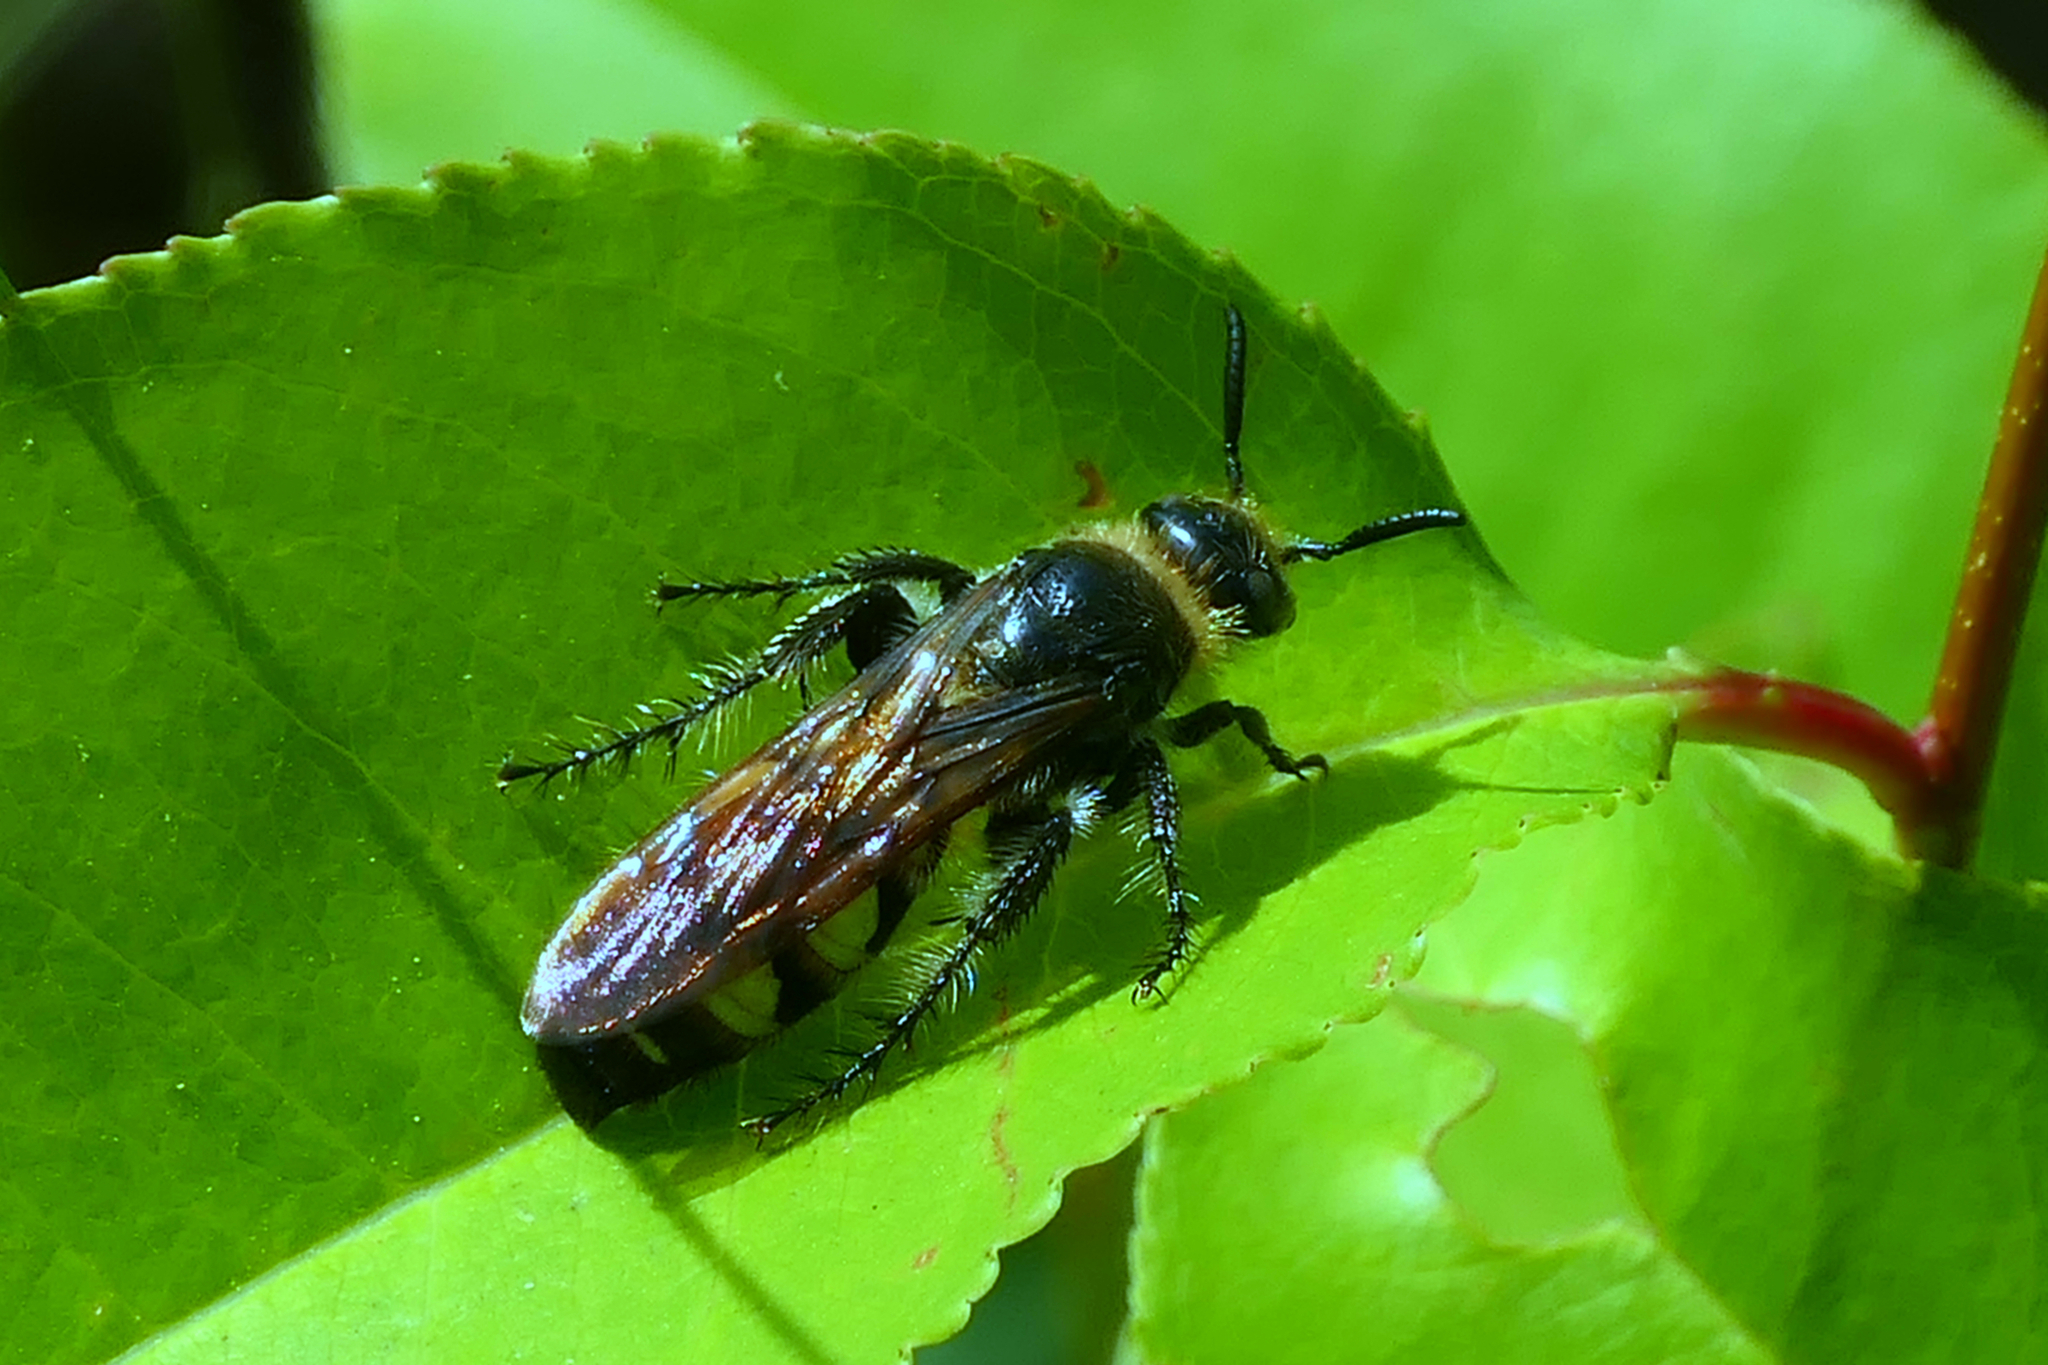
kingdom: Animalia
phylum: Arthropoda
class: Insecta
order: Hymenoptera
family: Scoliidae
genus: Dielis
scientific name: Dielis
